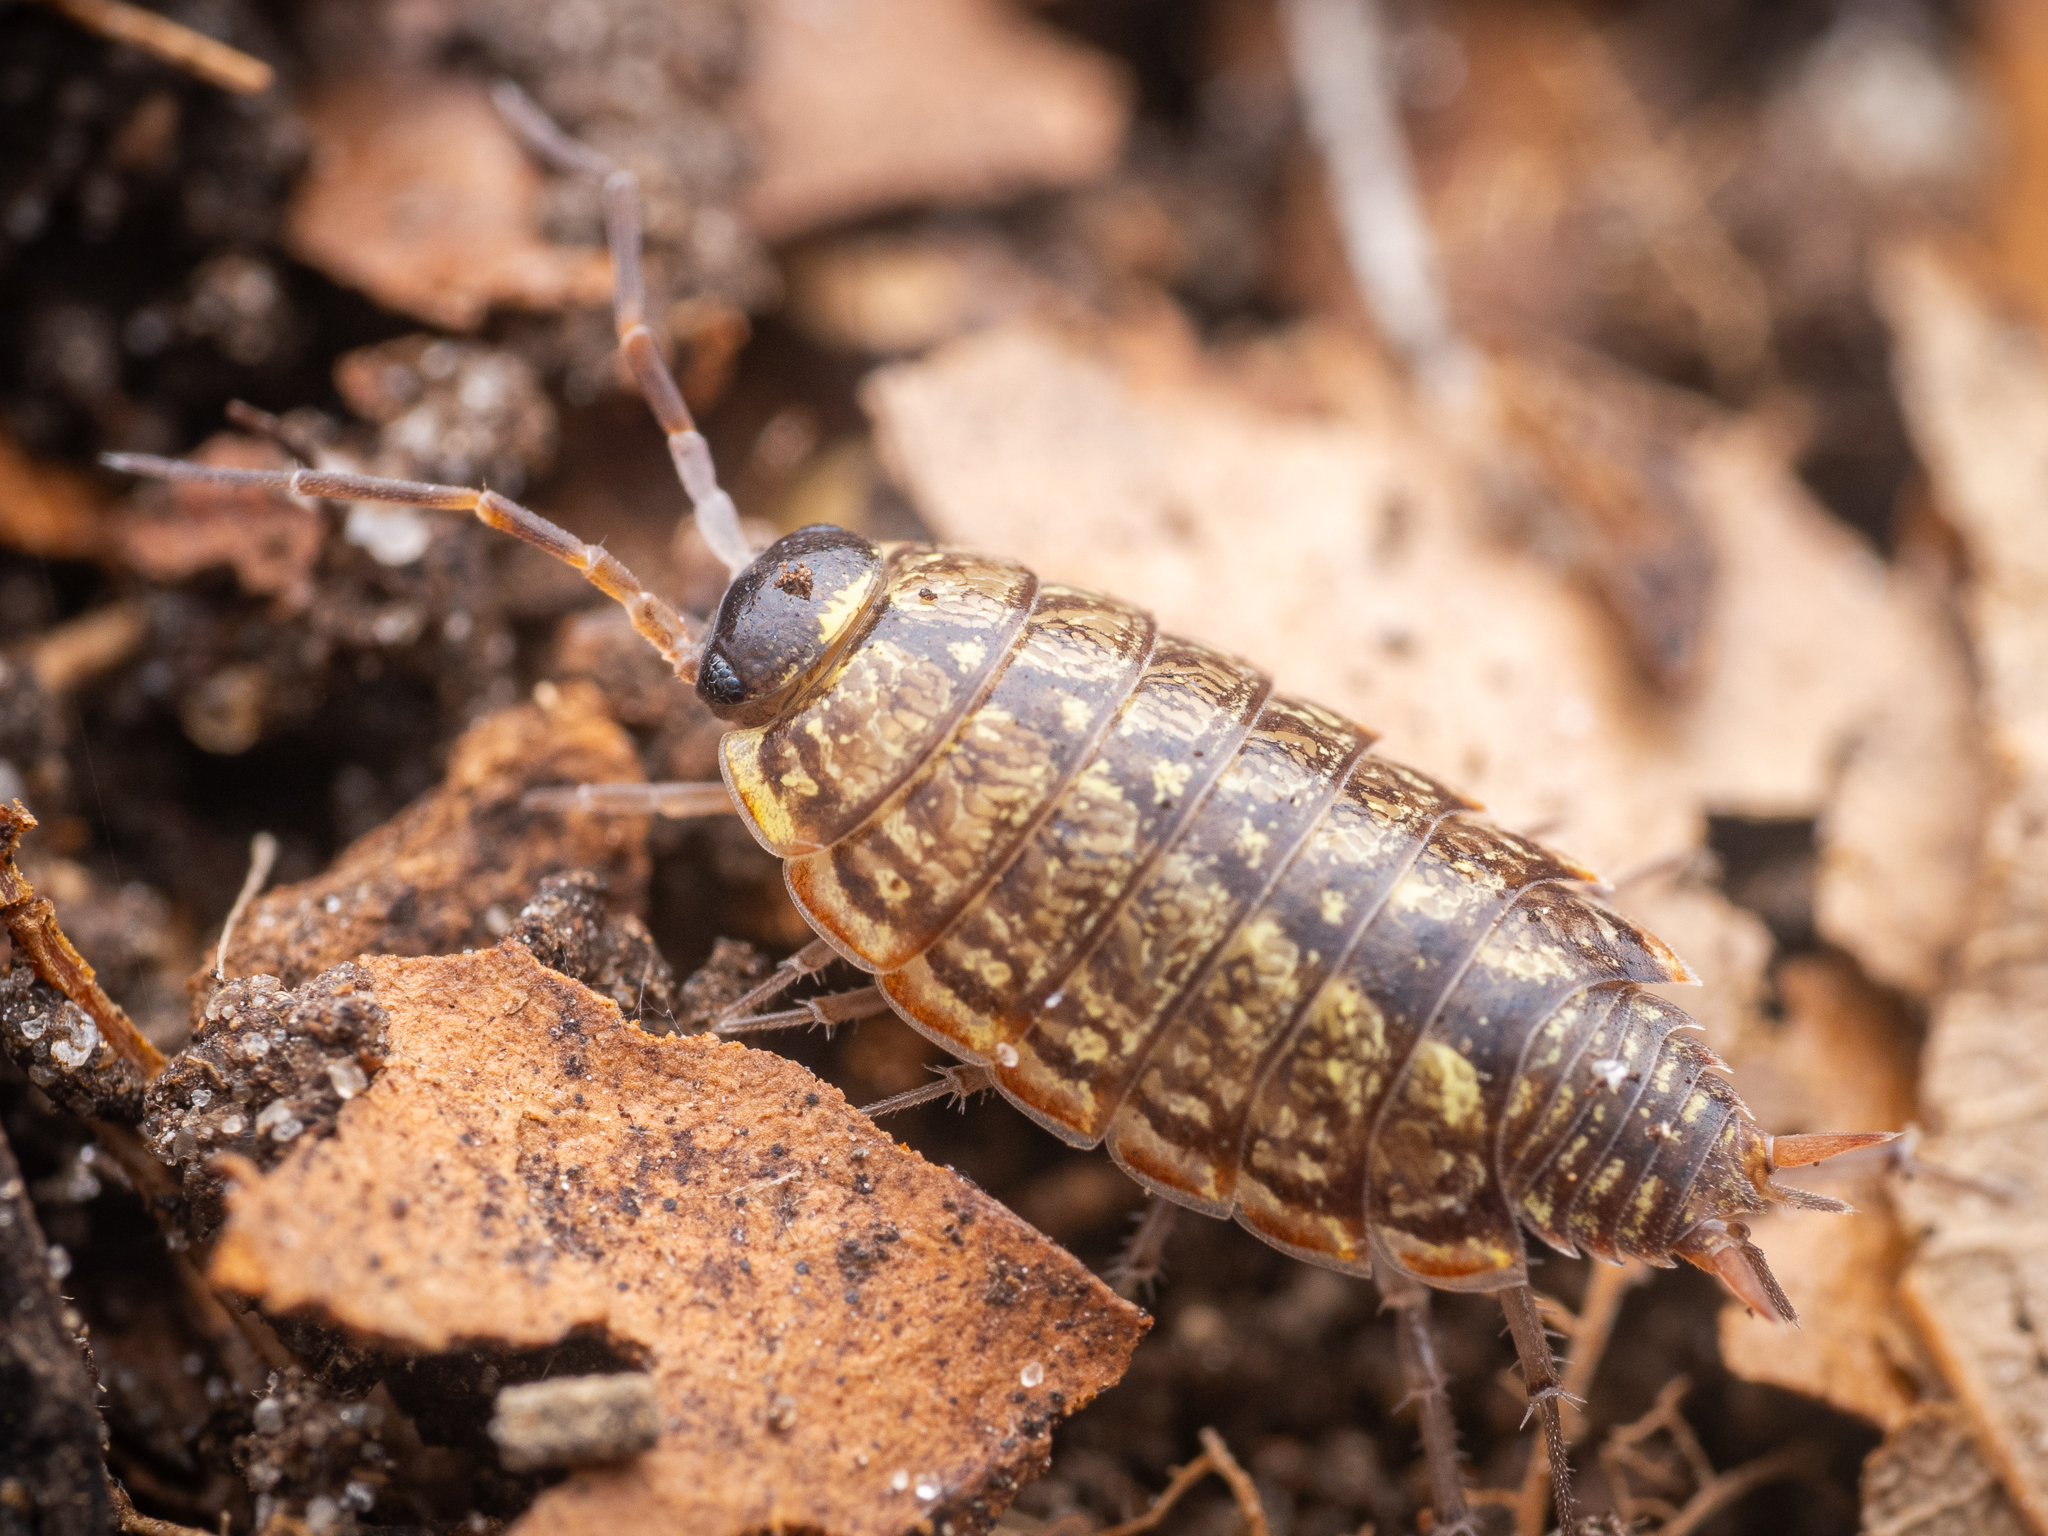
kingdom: Animalia
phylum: Arthropoda
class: Malacostraca
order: Isopoda
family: Philosciidae
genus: Philoscia
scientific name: Philoscia muscorum
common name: Common striped woodlouse
